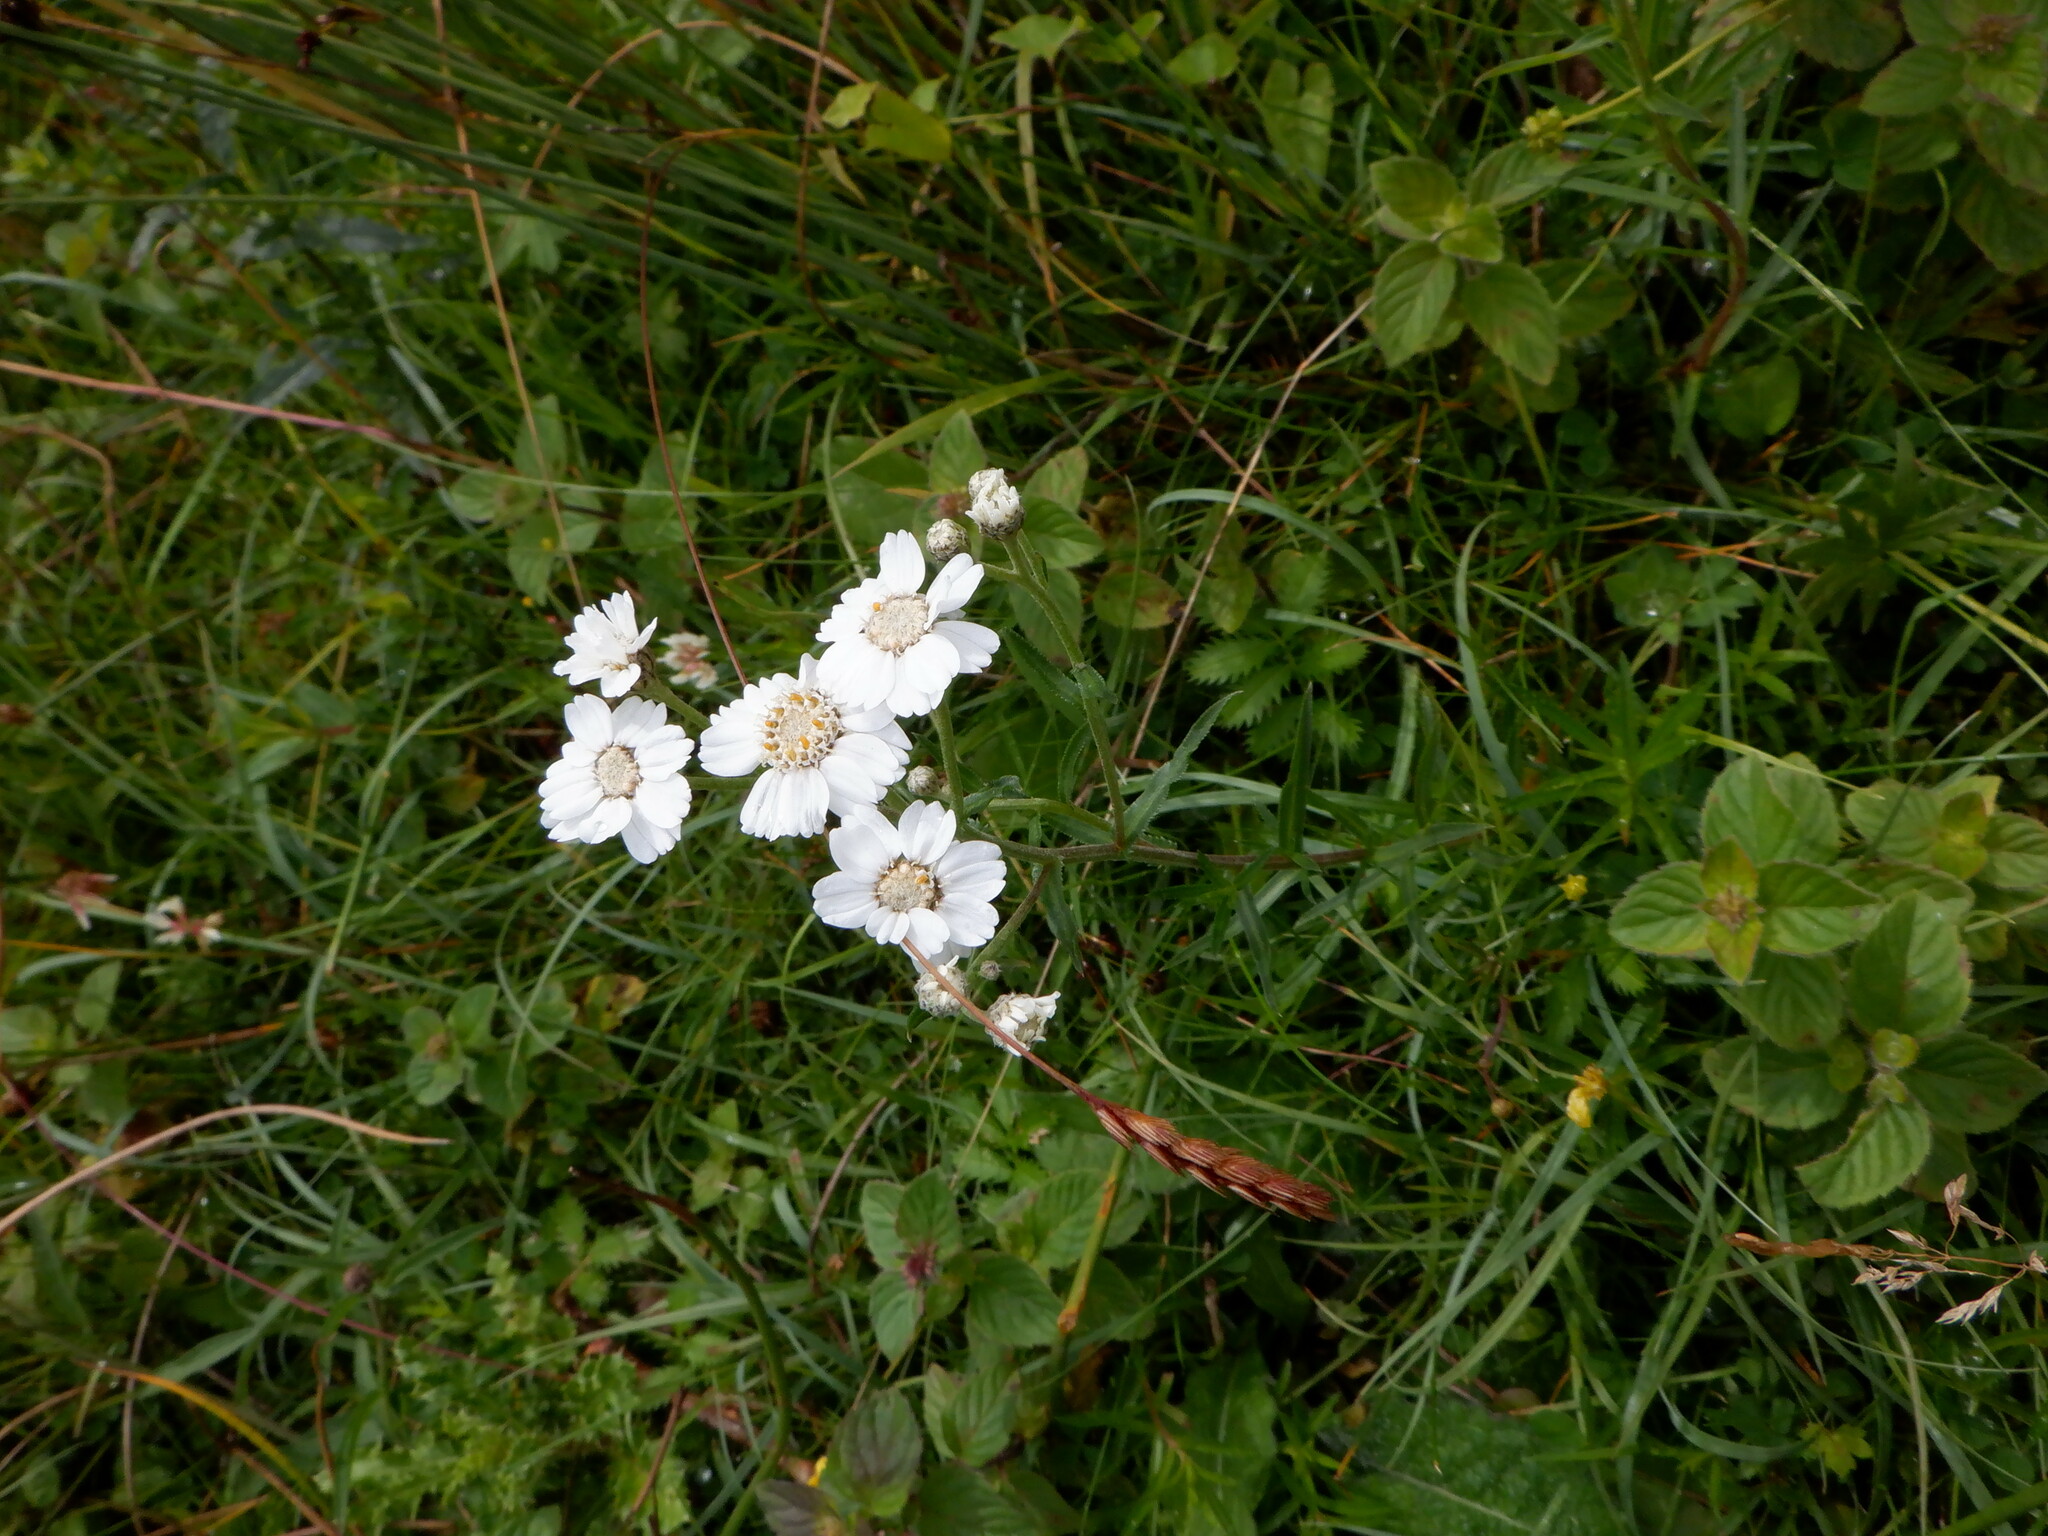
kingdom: Plantae
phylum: Tracheophyta
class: Magnoliopsida
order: Asterales
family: Asteraceae
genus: Achillea
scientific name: Achillea ptarmica
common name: Sneezeweed
